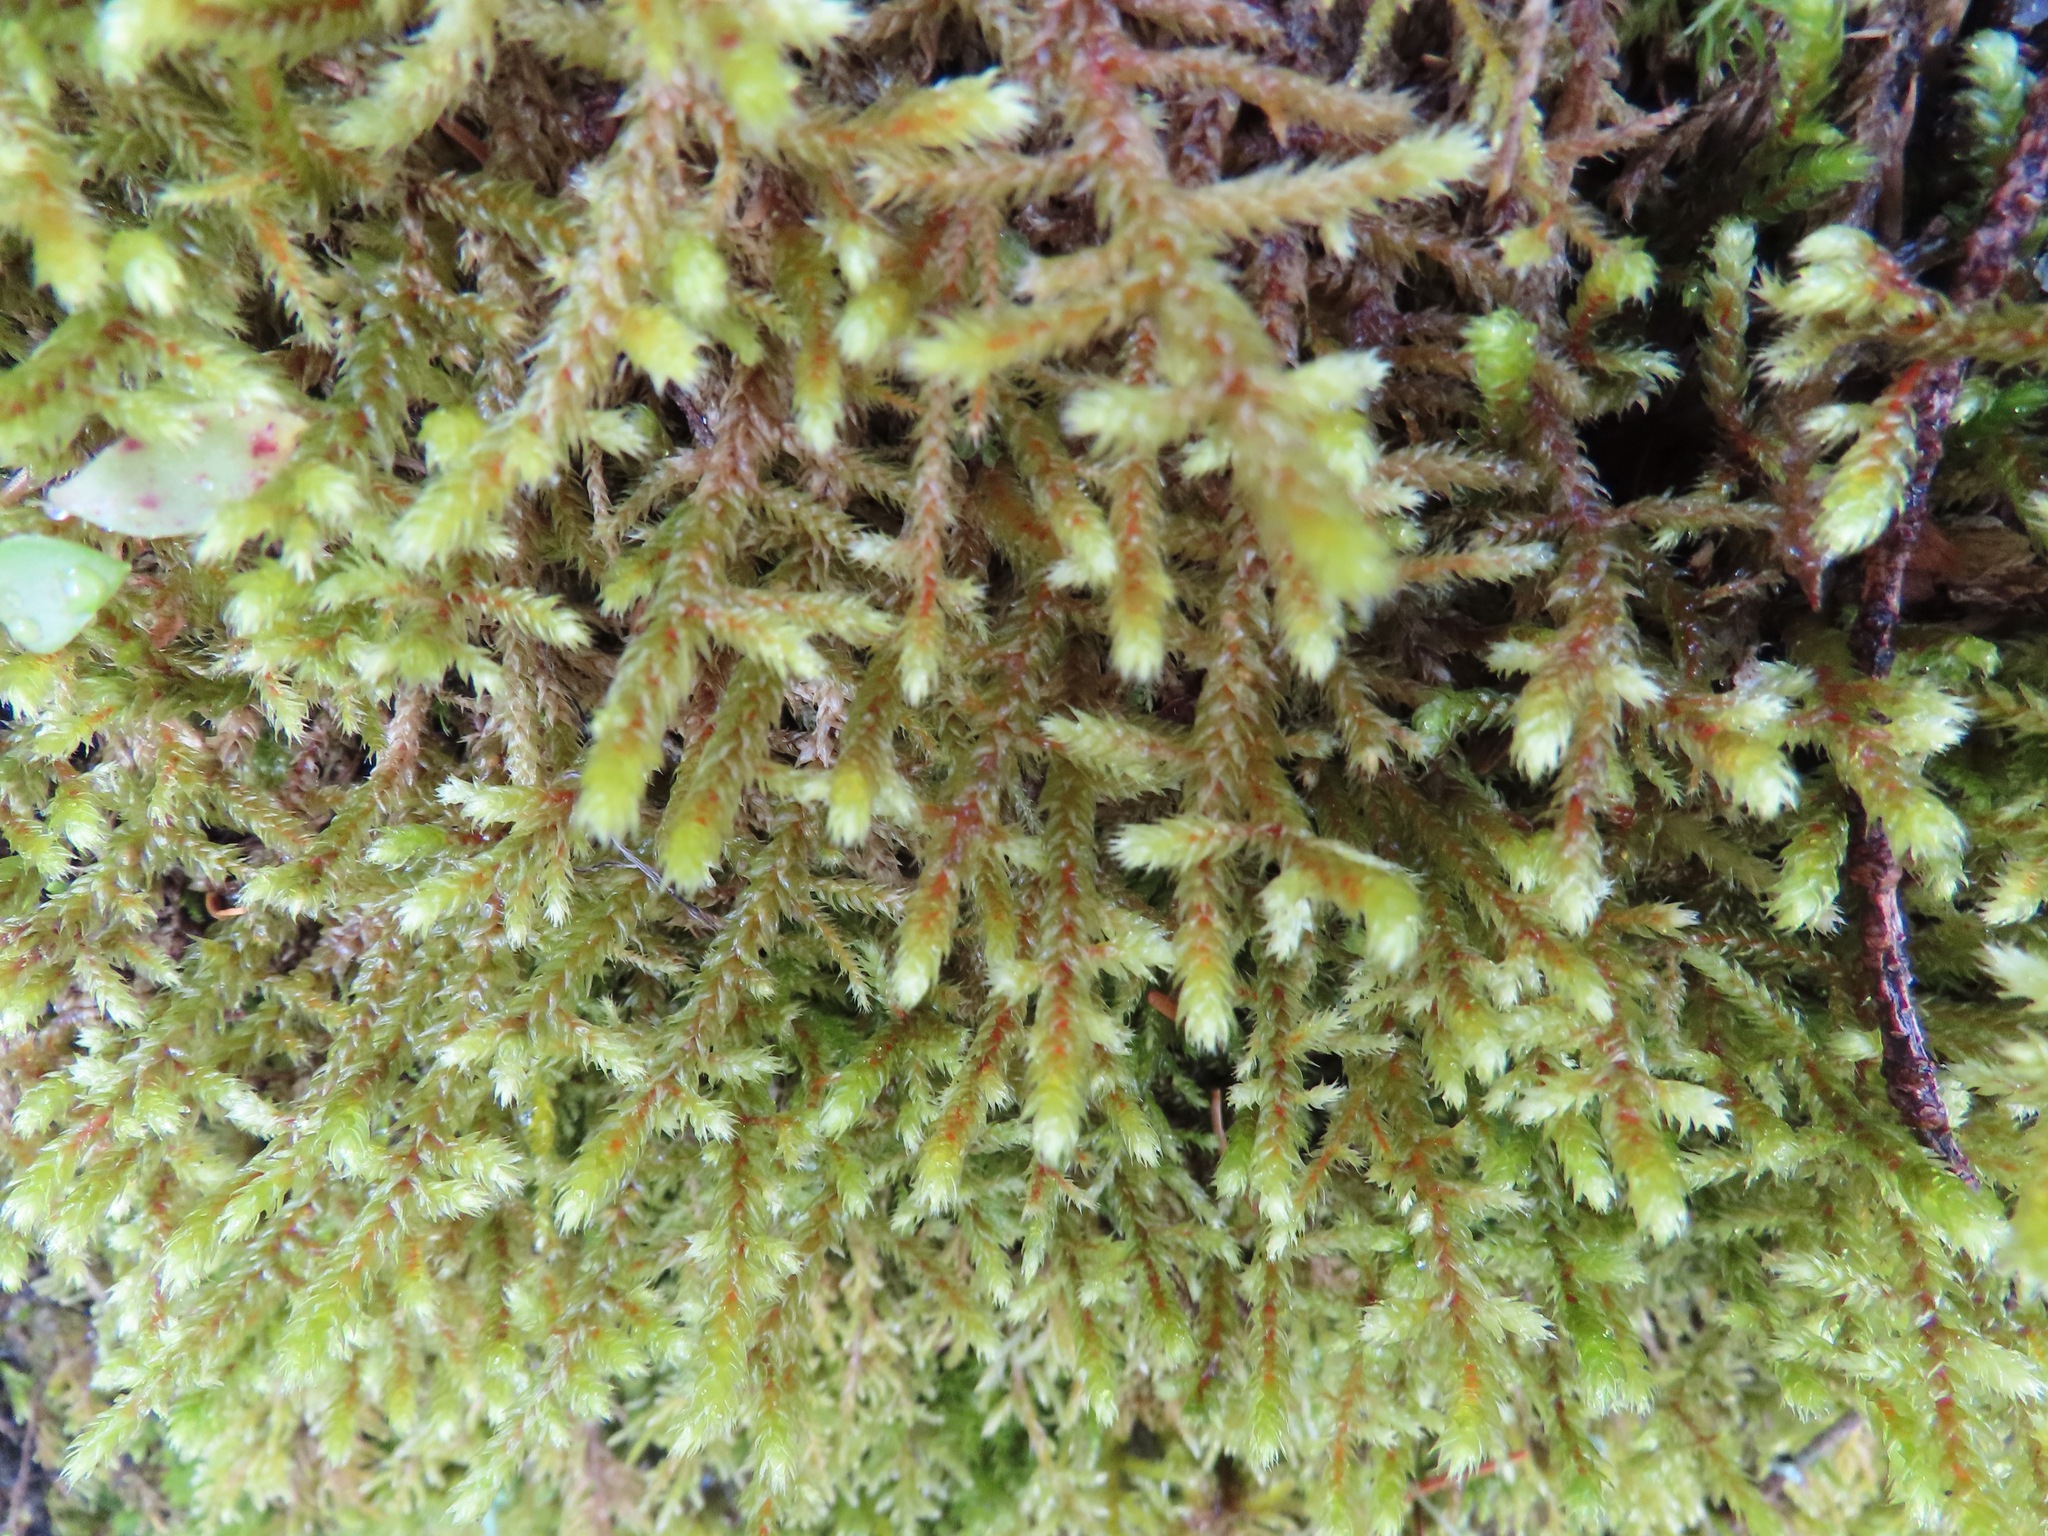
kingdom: Plantae
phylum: Bryophyta
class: Bryopsida
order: Hypnales
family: Antitrichiaceae
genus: Antitrichia
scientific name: Antitrichia curtipendula
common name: Pendulous wing-moss
